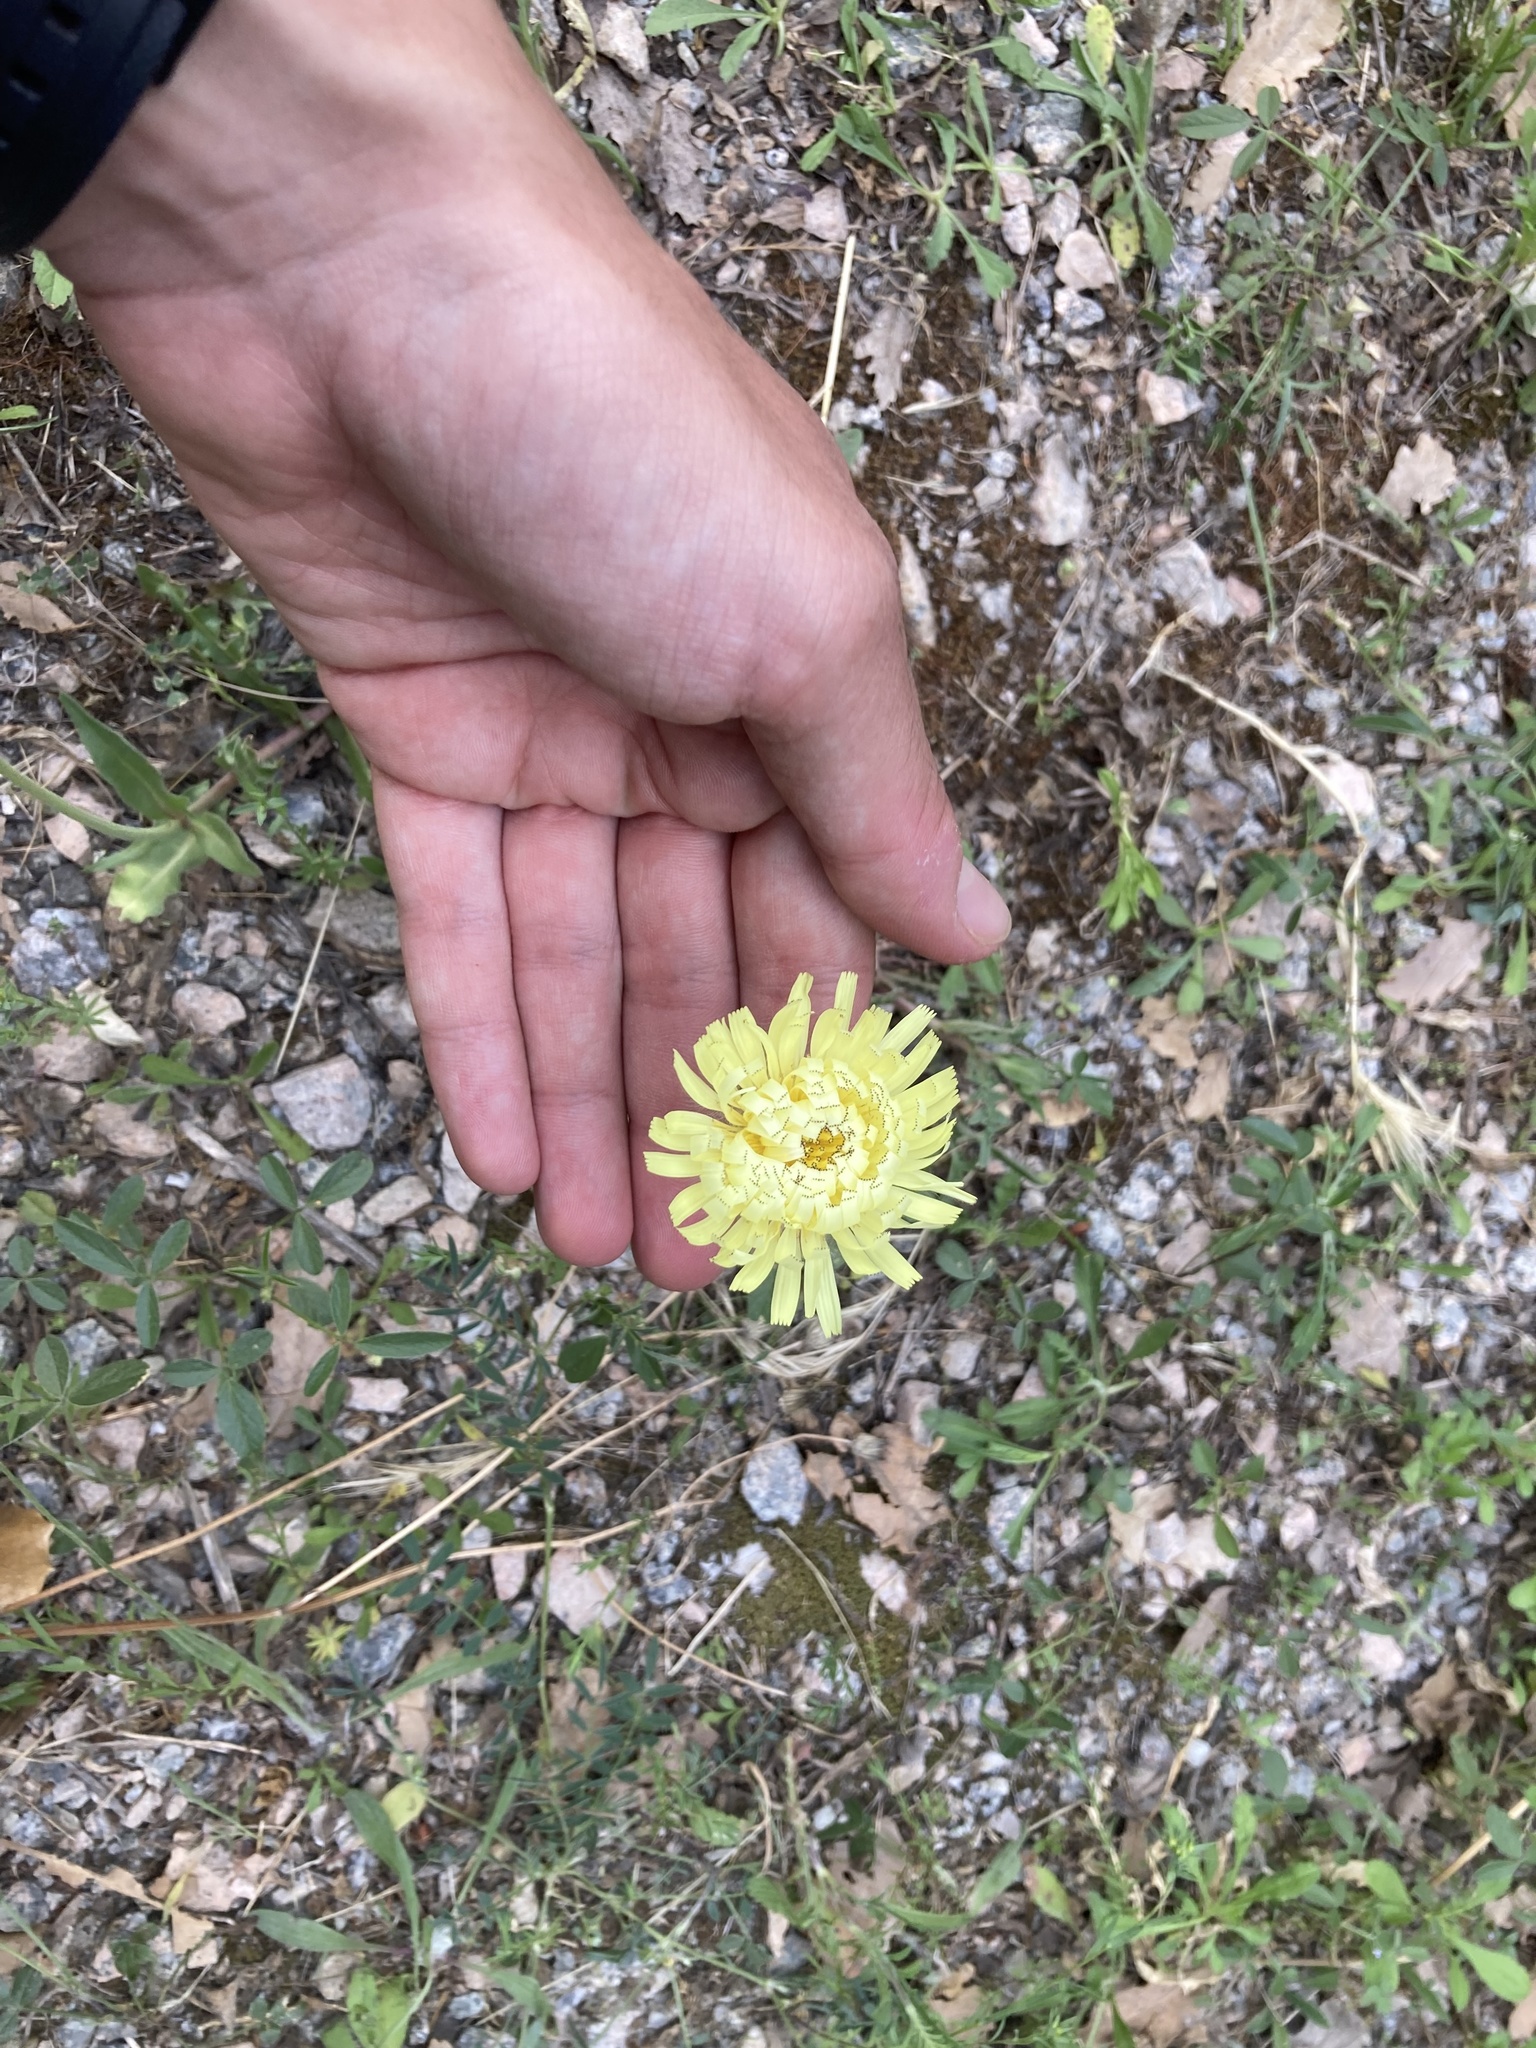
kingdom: Plantae
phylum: Tracheophyta
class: Magnoliopsida
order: Asterales
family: Asteraceae
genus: Urospermum
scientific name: Urospermum dalechampii
